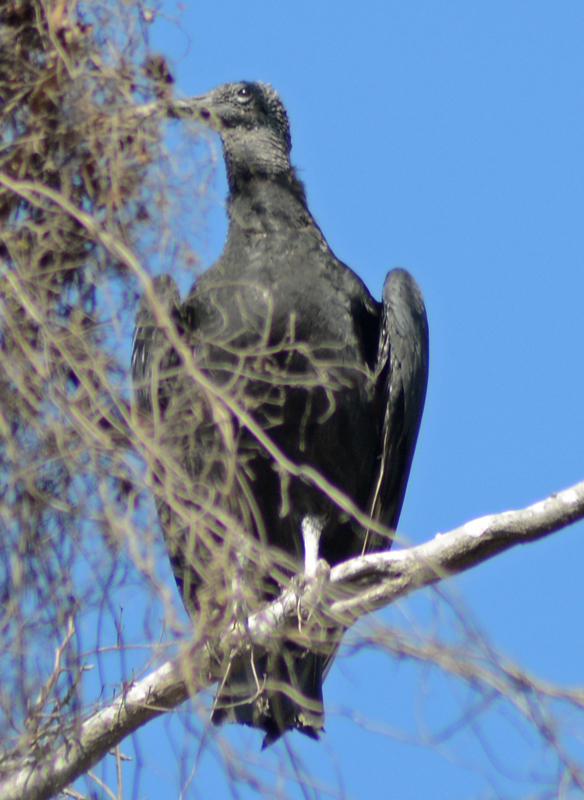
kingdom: Animalia
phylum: Chordata
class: Aves
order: Accipitriformes
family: Cathartidae
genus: Coragyps
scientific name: Coragyps atratus
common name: Black vulture
